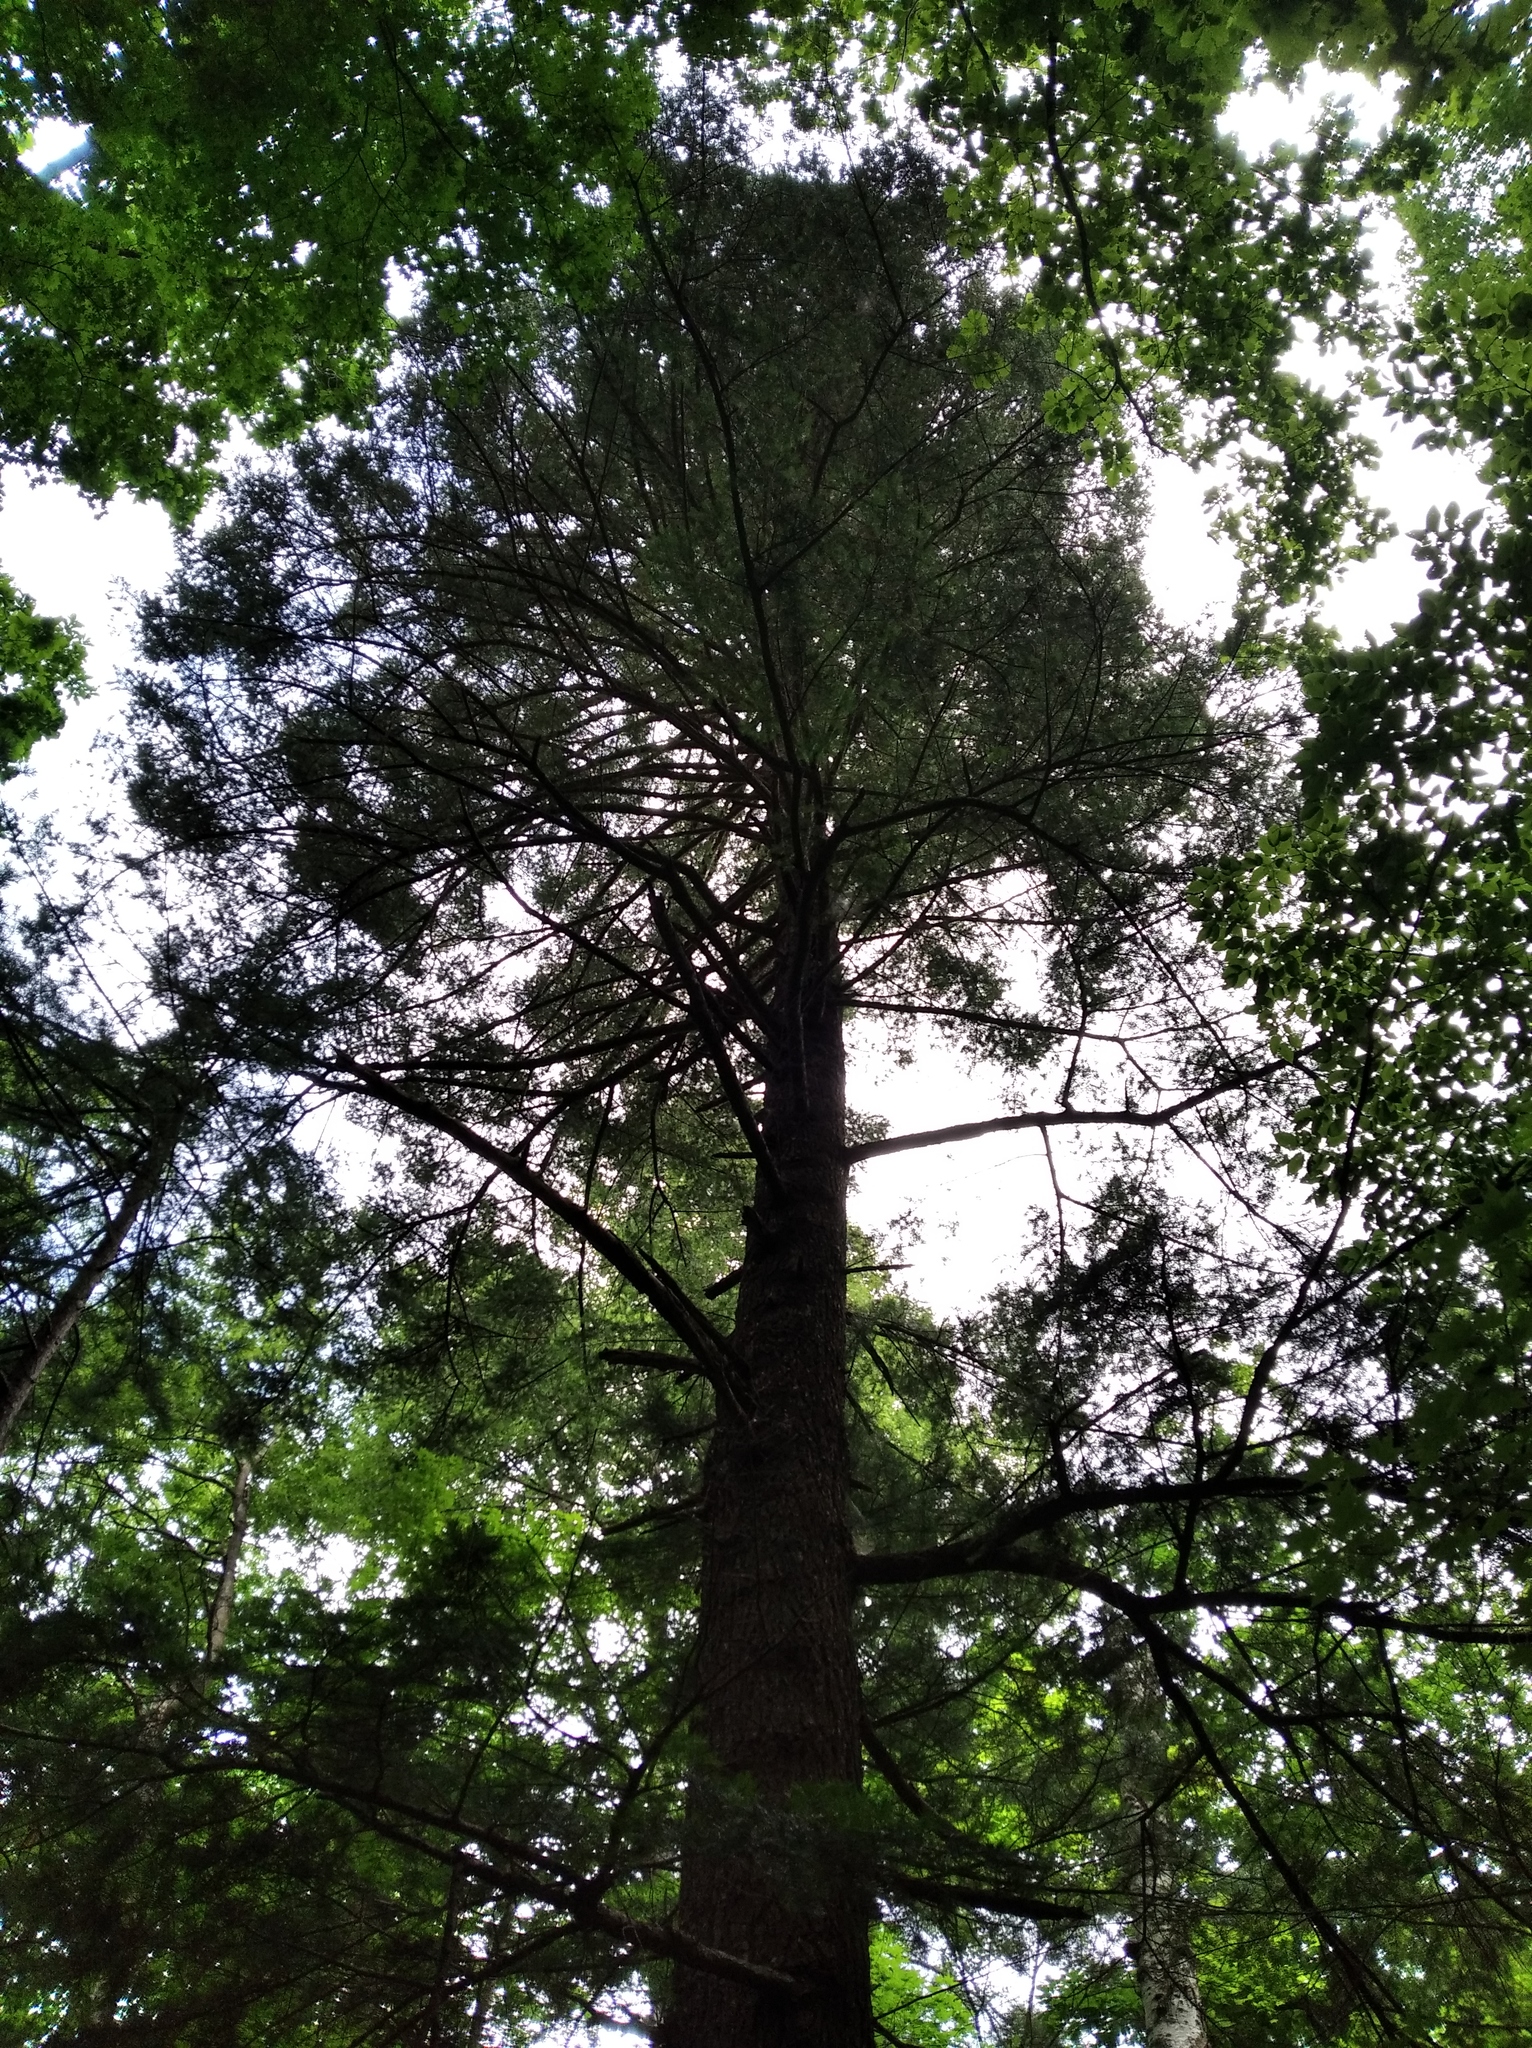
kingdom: Plantae
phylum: Tracheophyta
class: Pinopsida
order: Pinales
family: Pinaceae
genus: Abies
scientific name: Abies holophylla
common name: Manchurian fir
